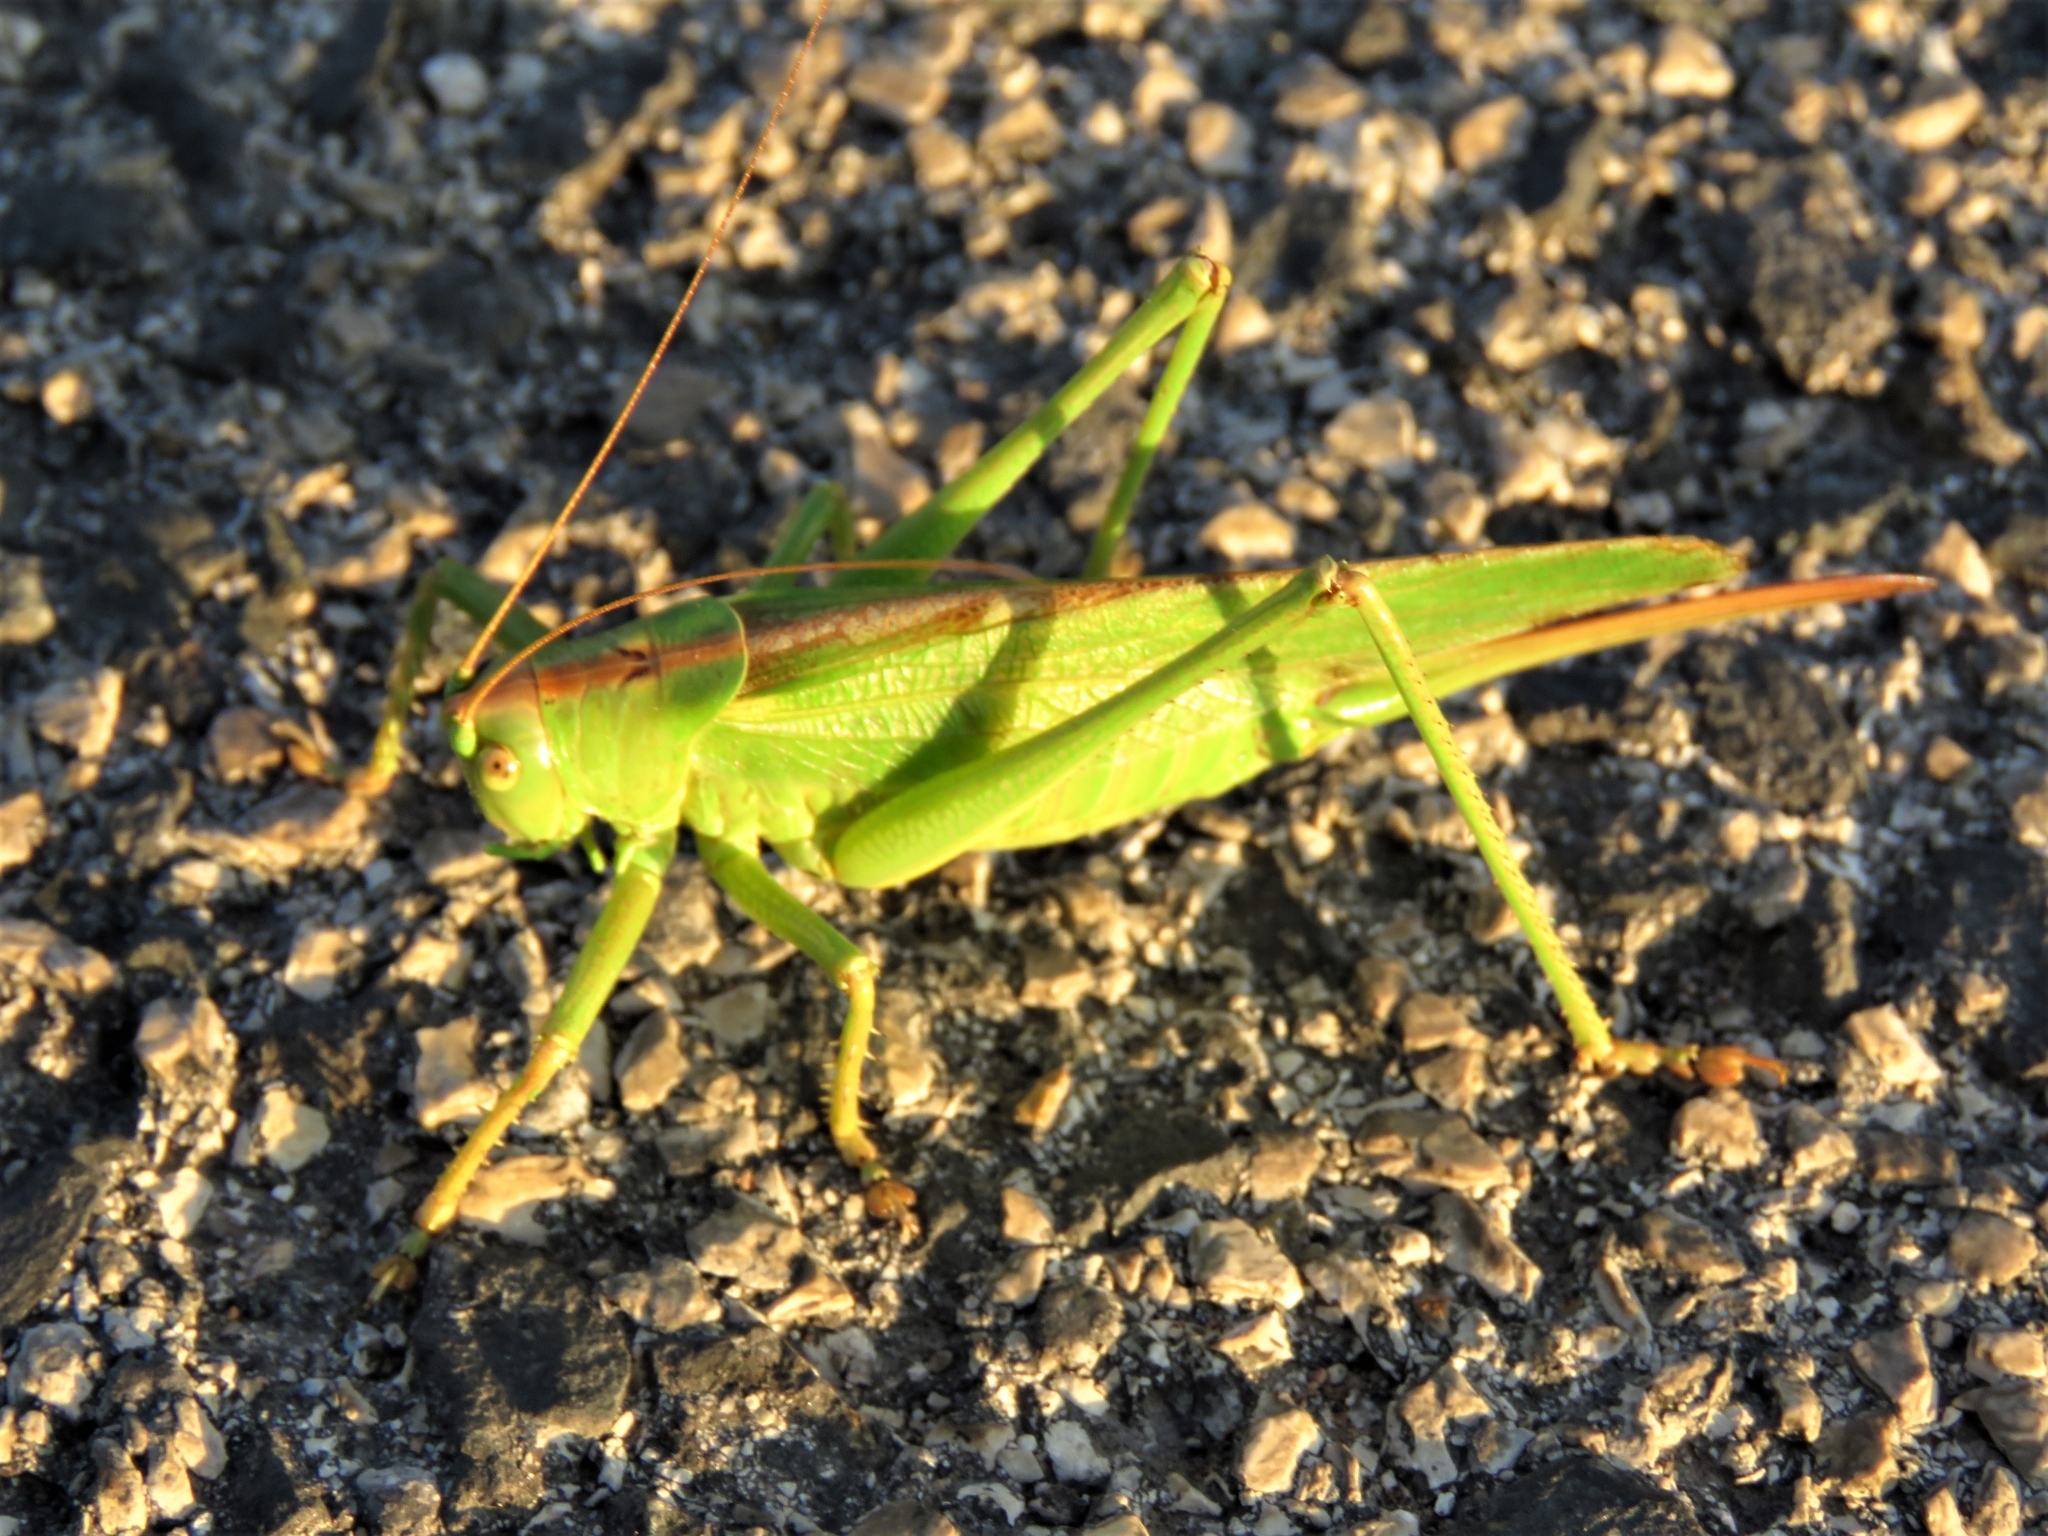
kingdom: Animalia
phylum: Arthropoda
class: Insecta
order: Orthoptera
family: Tettigoniidae
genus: Tettigonia
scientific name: Tettigonia viridissima
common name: Great green bush-cricket
